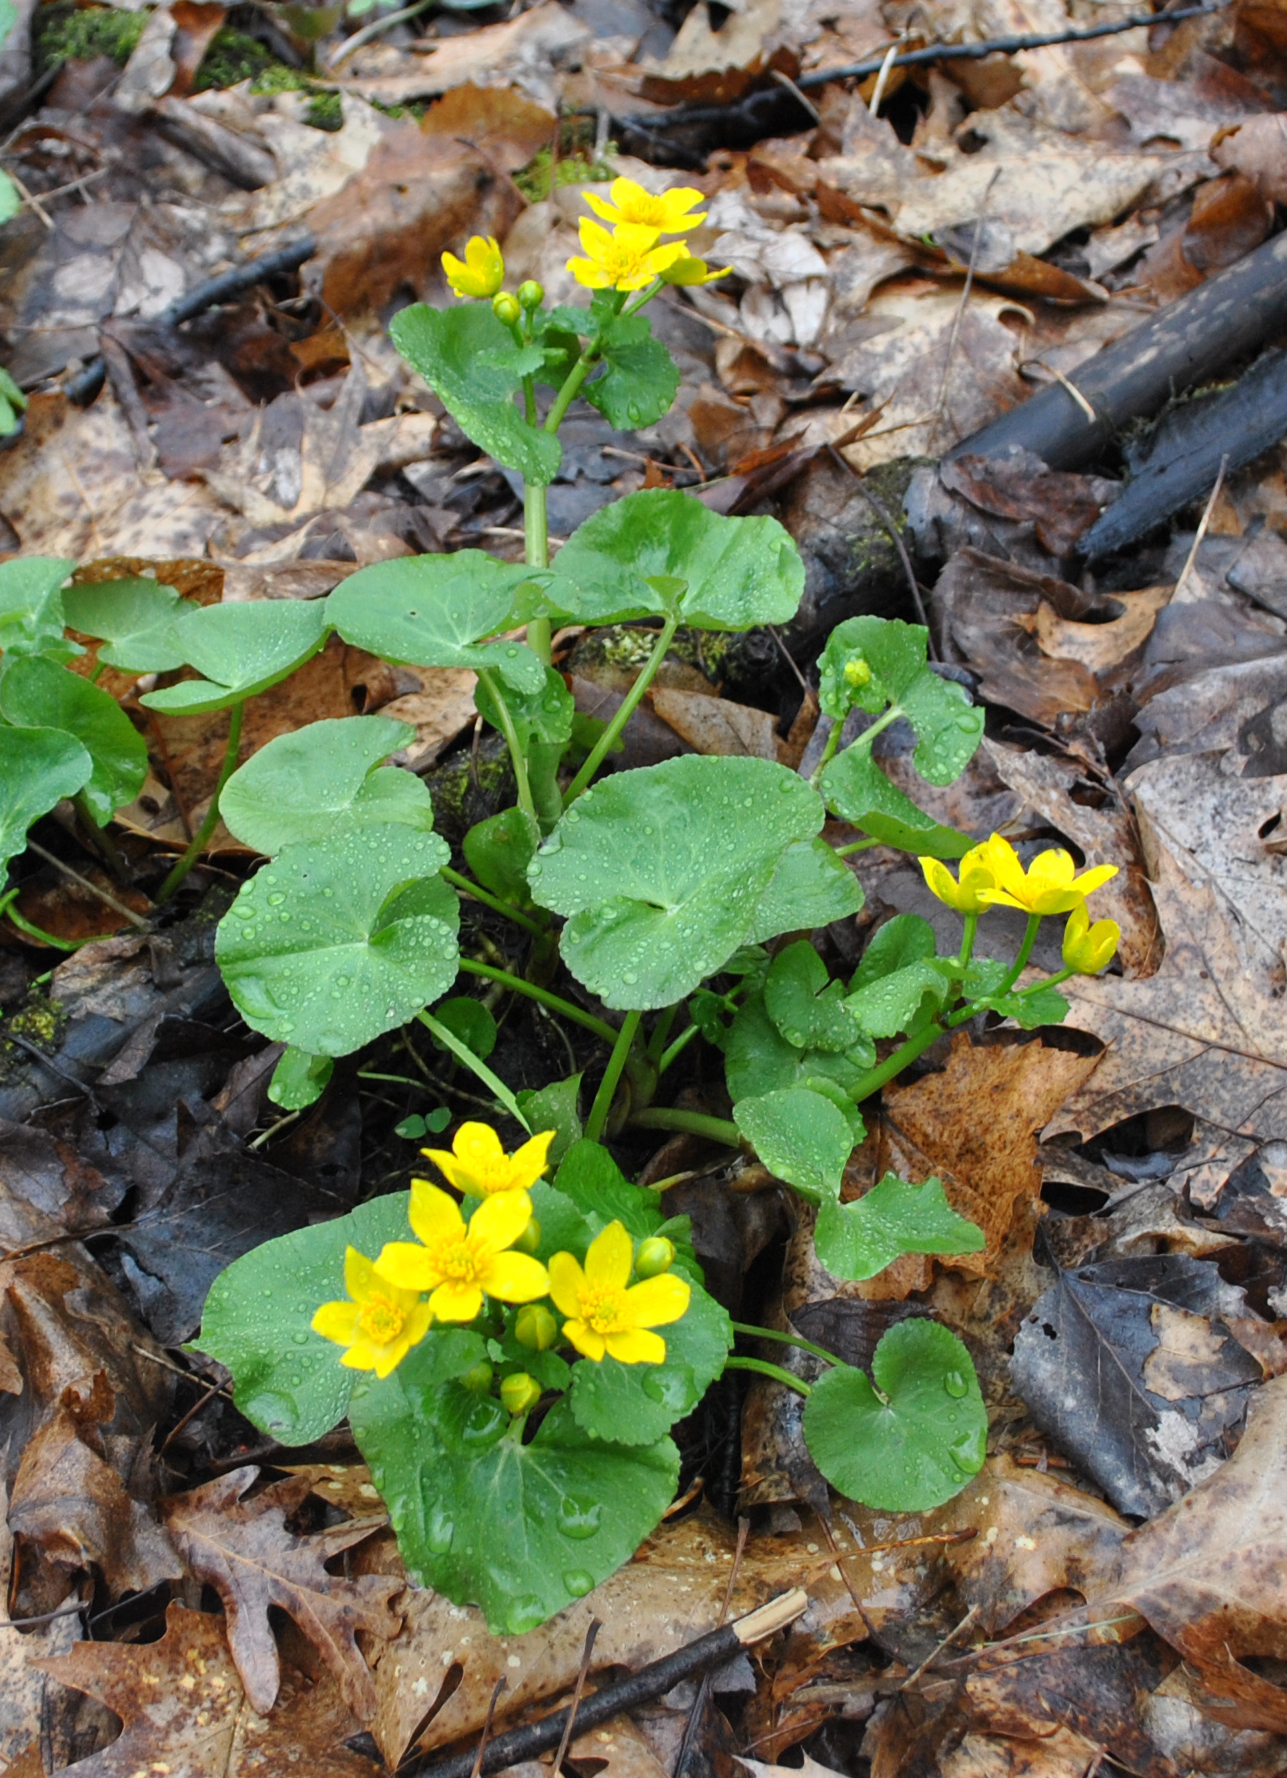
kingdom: Plantae
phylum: Tracheophyta
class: Magnoliopsida
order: Ranunculales
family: Ranunculaceae
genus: Caltha
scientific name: Caltha palustris
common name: Marsh marigold
